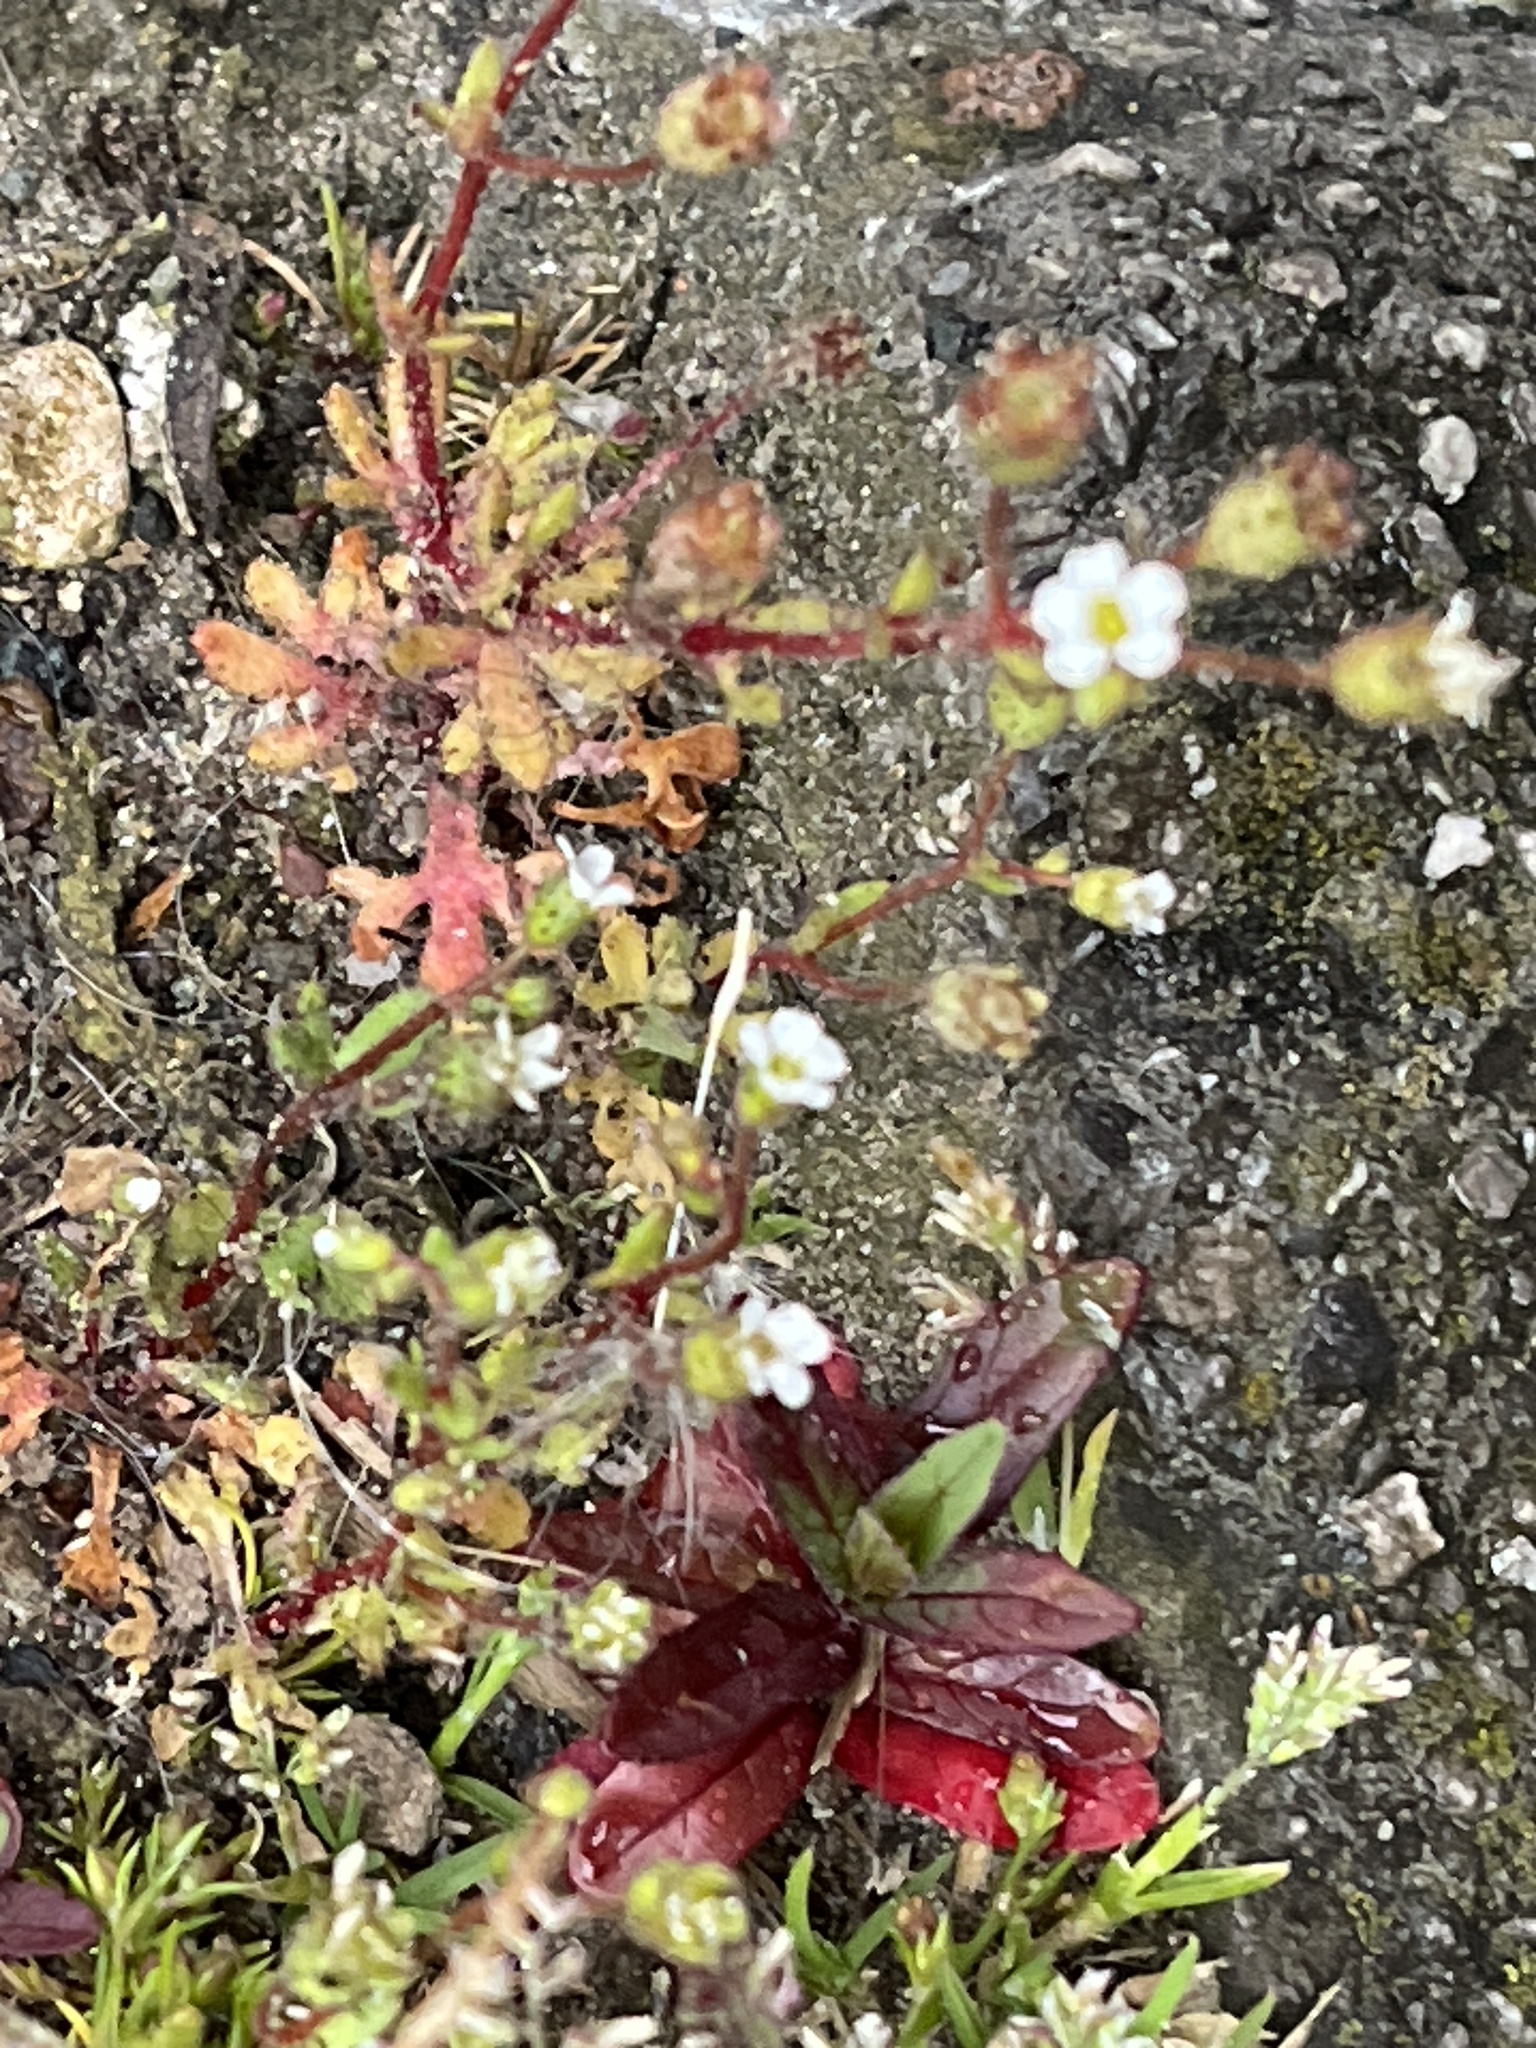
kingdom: Plantae
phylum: Tracheophyta
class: Magnoliopsida
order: Saxifragales
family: Saxifragaceae
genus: Saxifraga
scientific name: Saxifraga tridactylites
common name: Rue-leaved saxifrage
